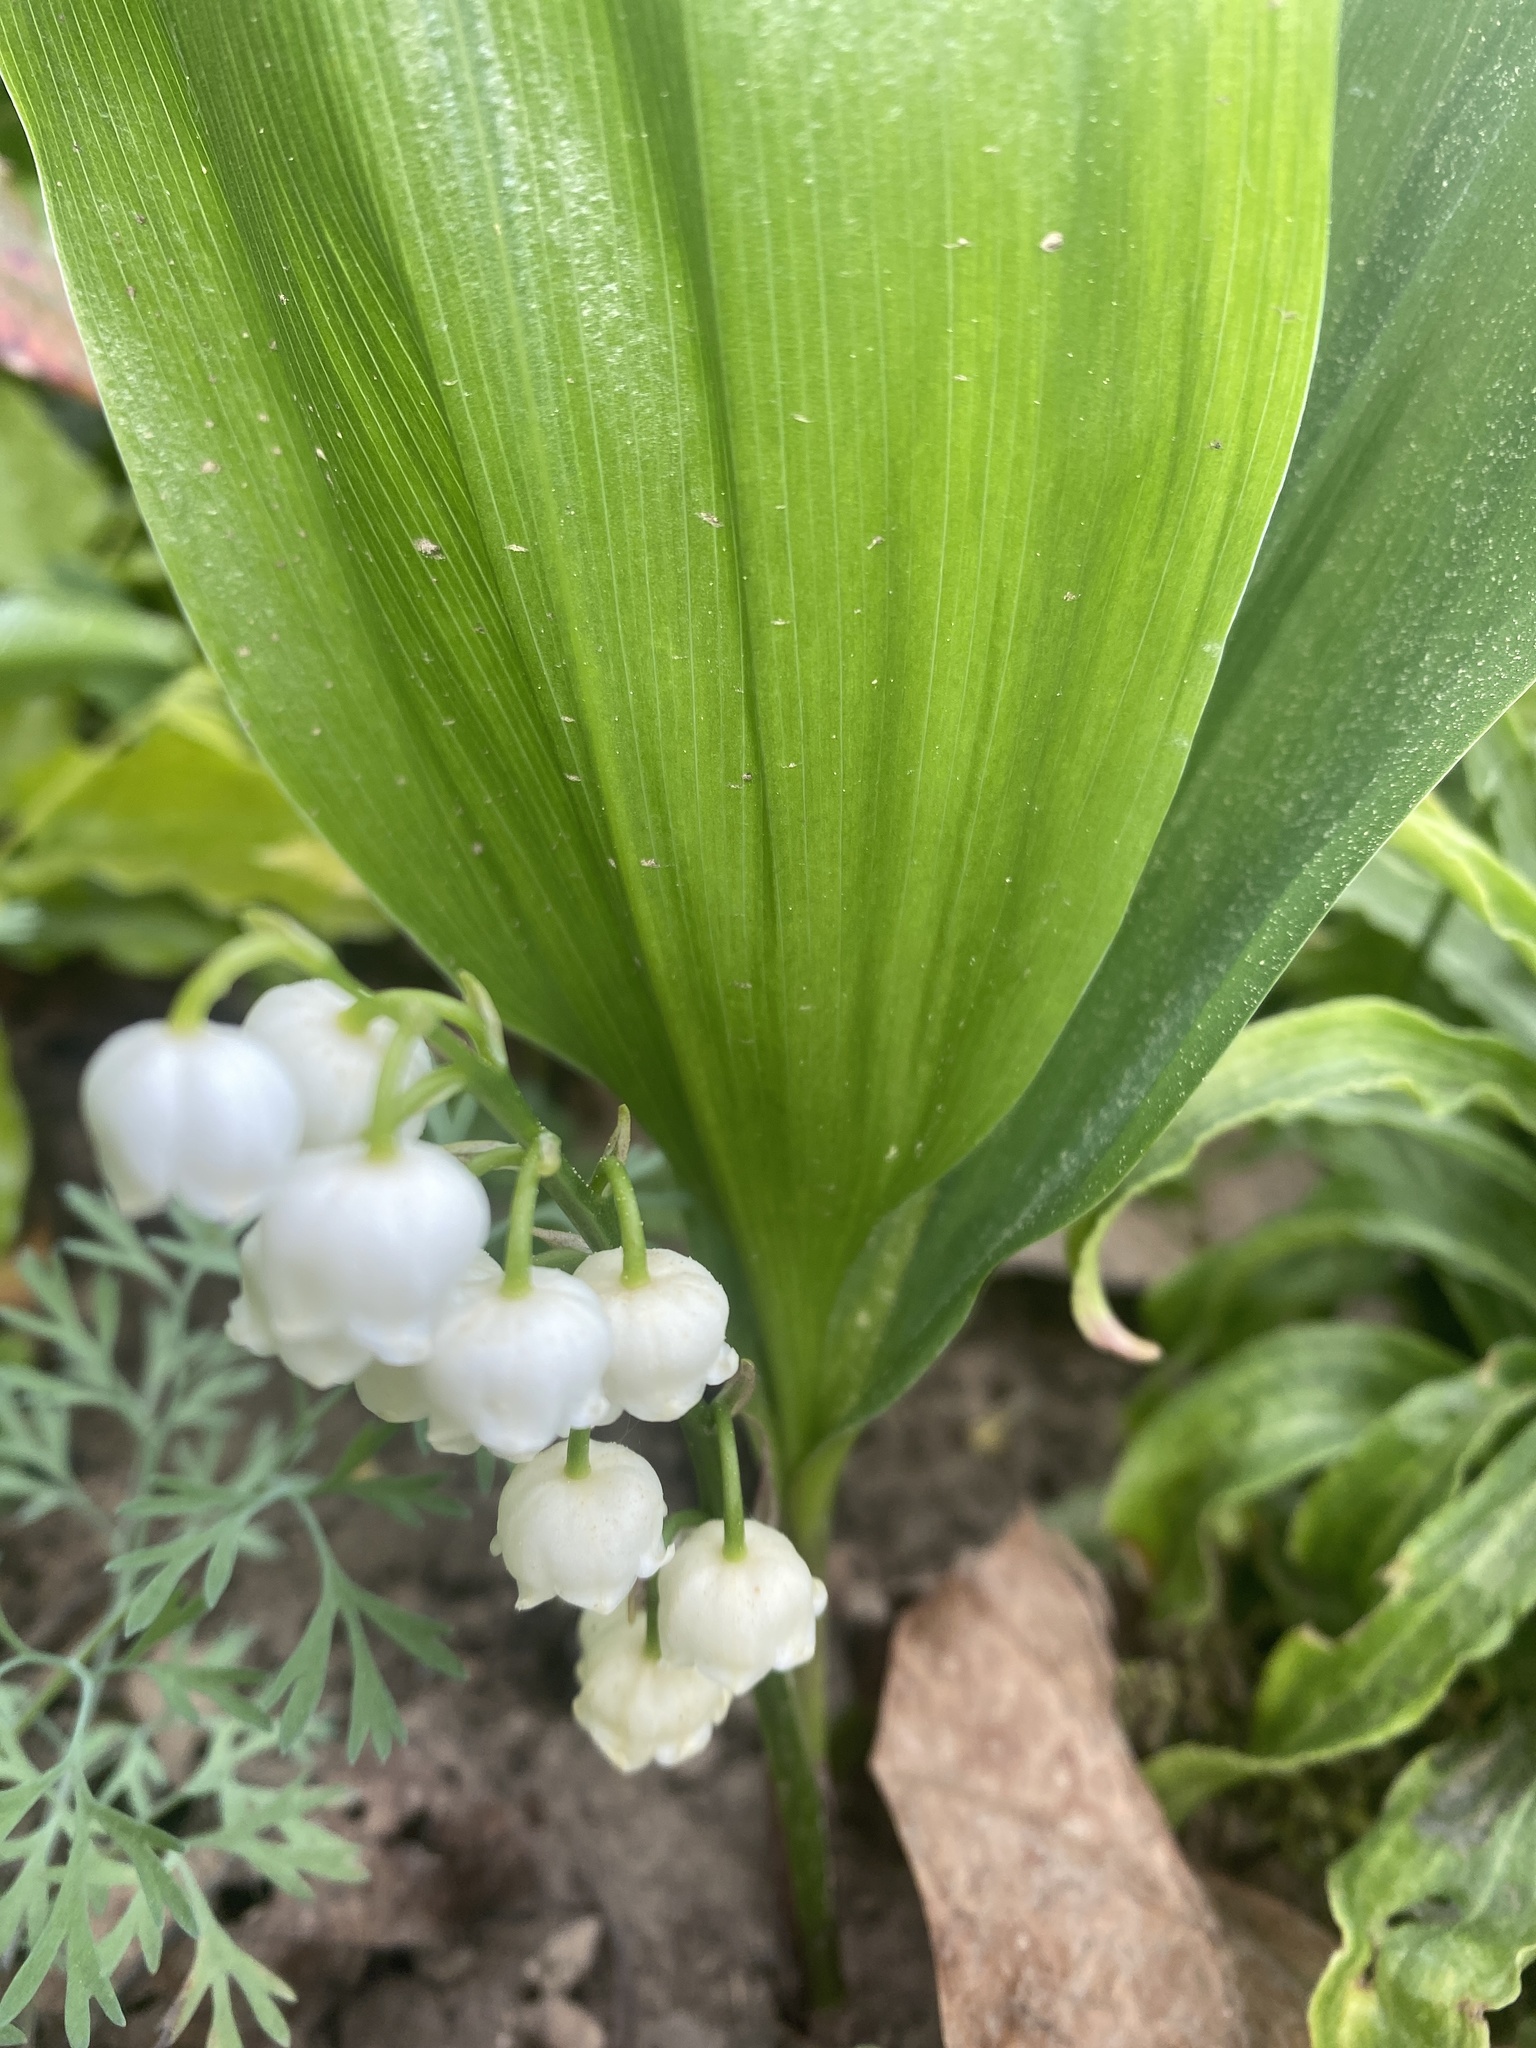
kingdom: Plantae
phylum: Tracheophyta
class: Liliopsida
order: Asparagales
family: Asparagaceae
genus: Convallaria
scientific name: Convallaria majalis
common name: Lily-of-the-valley
